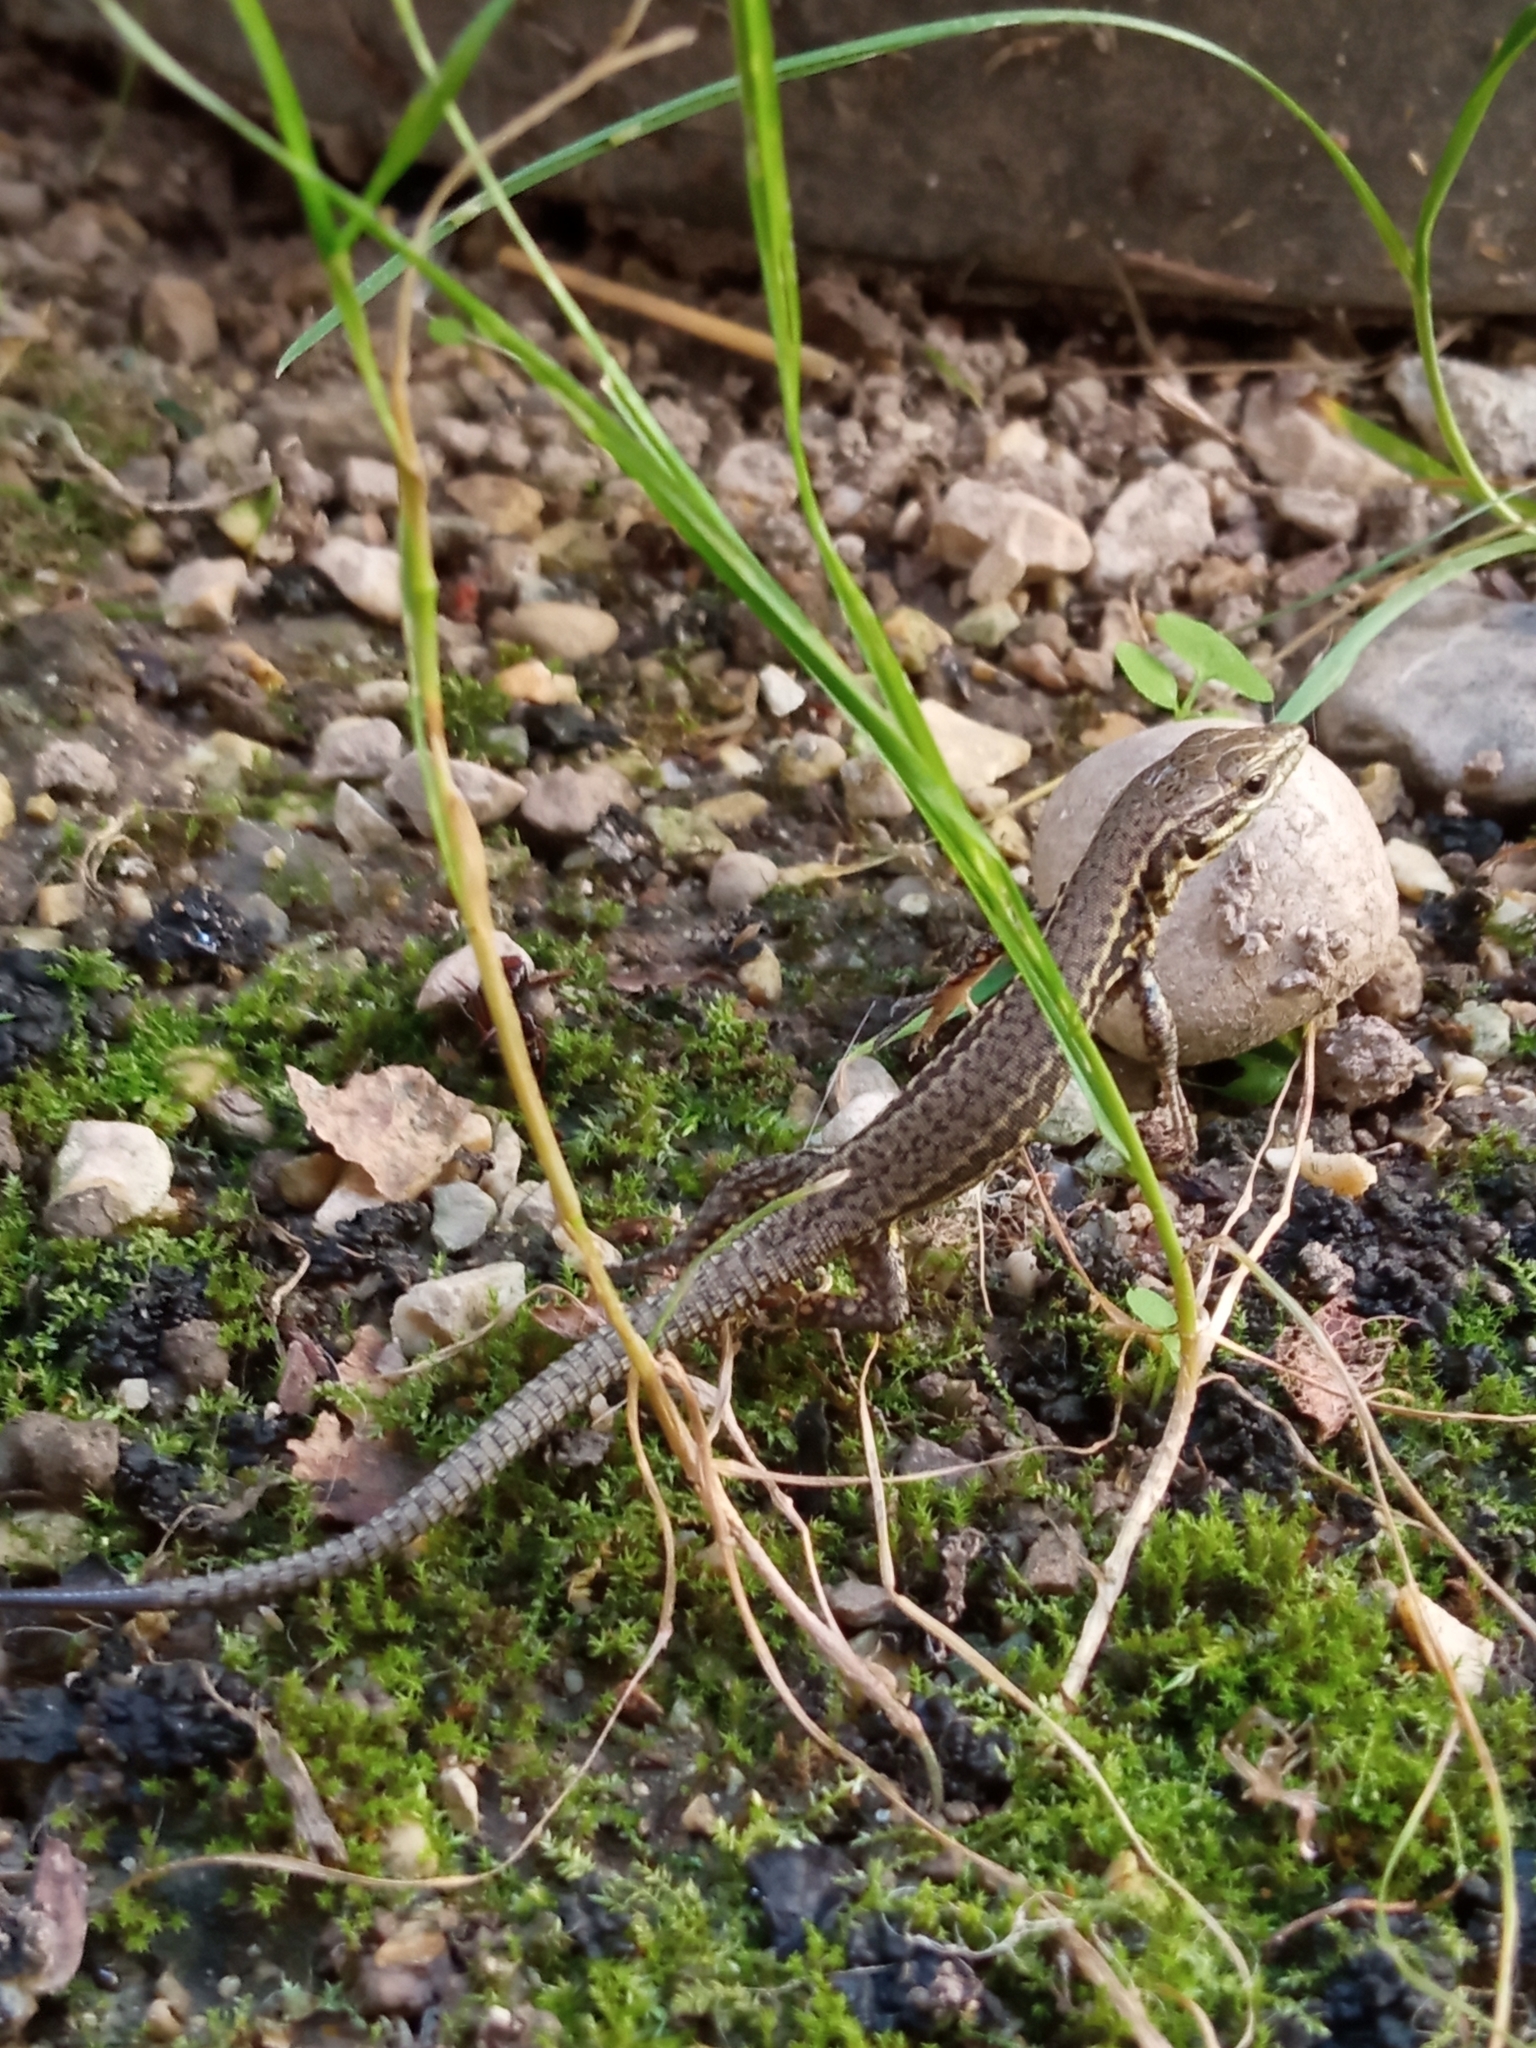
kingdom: Animalia
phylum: Chordata
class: Squamata
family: Lacertidae
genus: Podarcis
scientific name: Podarcis muralis
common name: Common wall lizard
